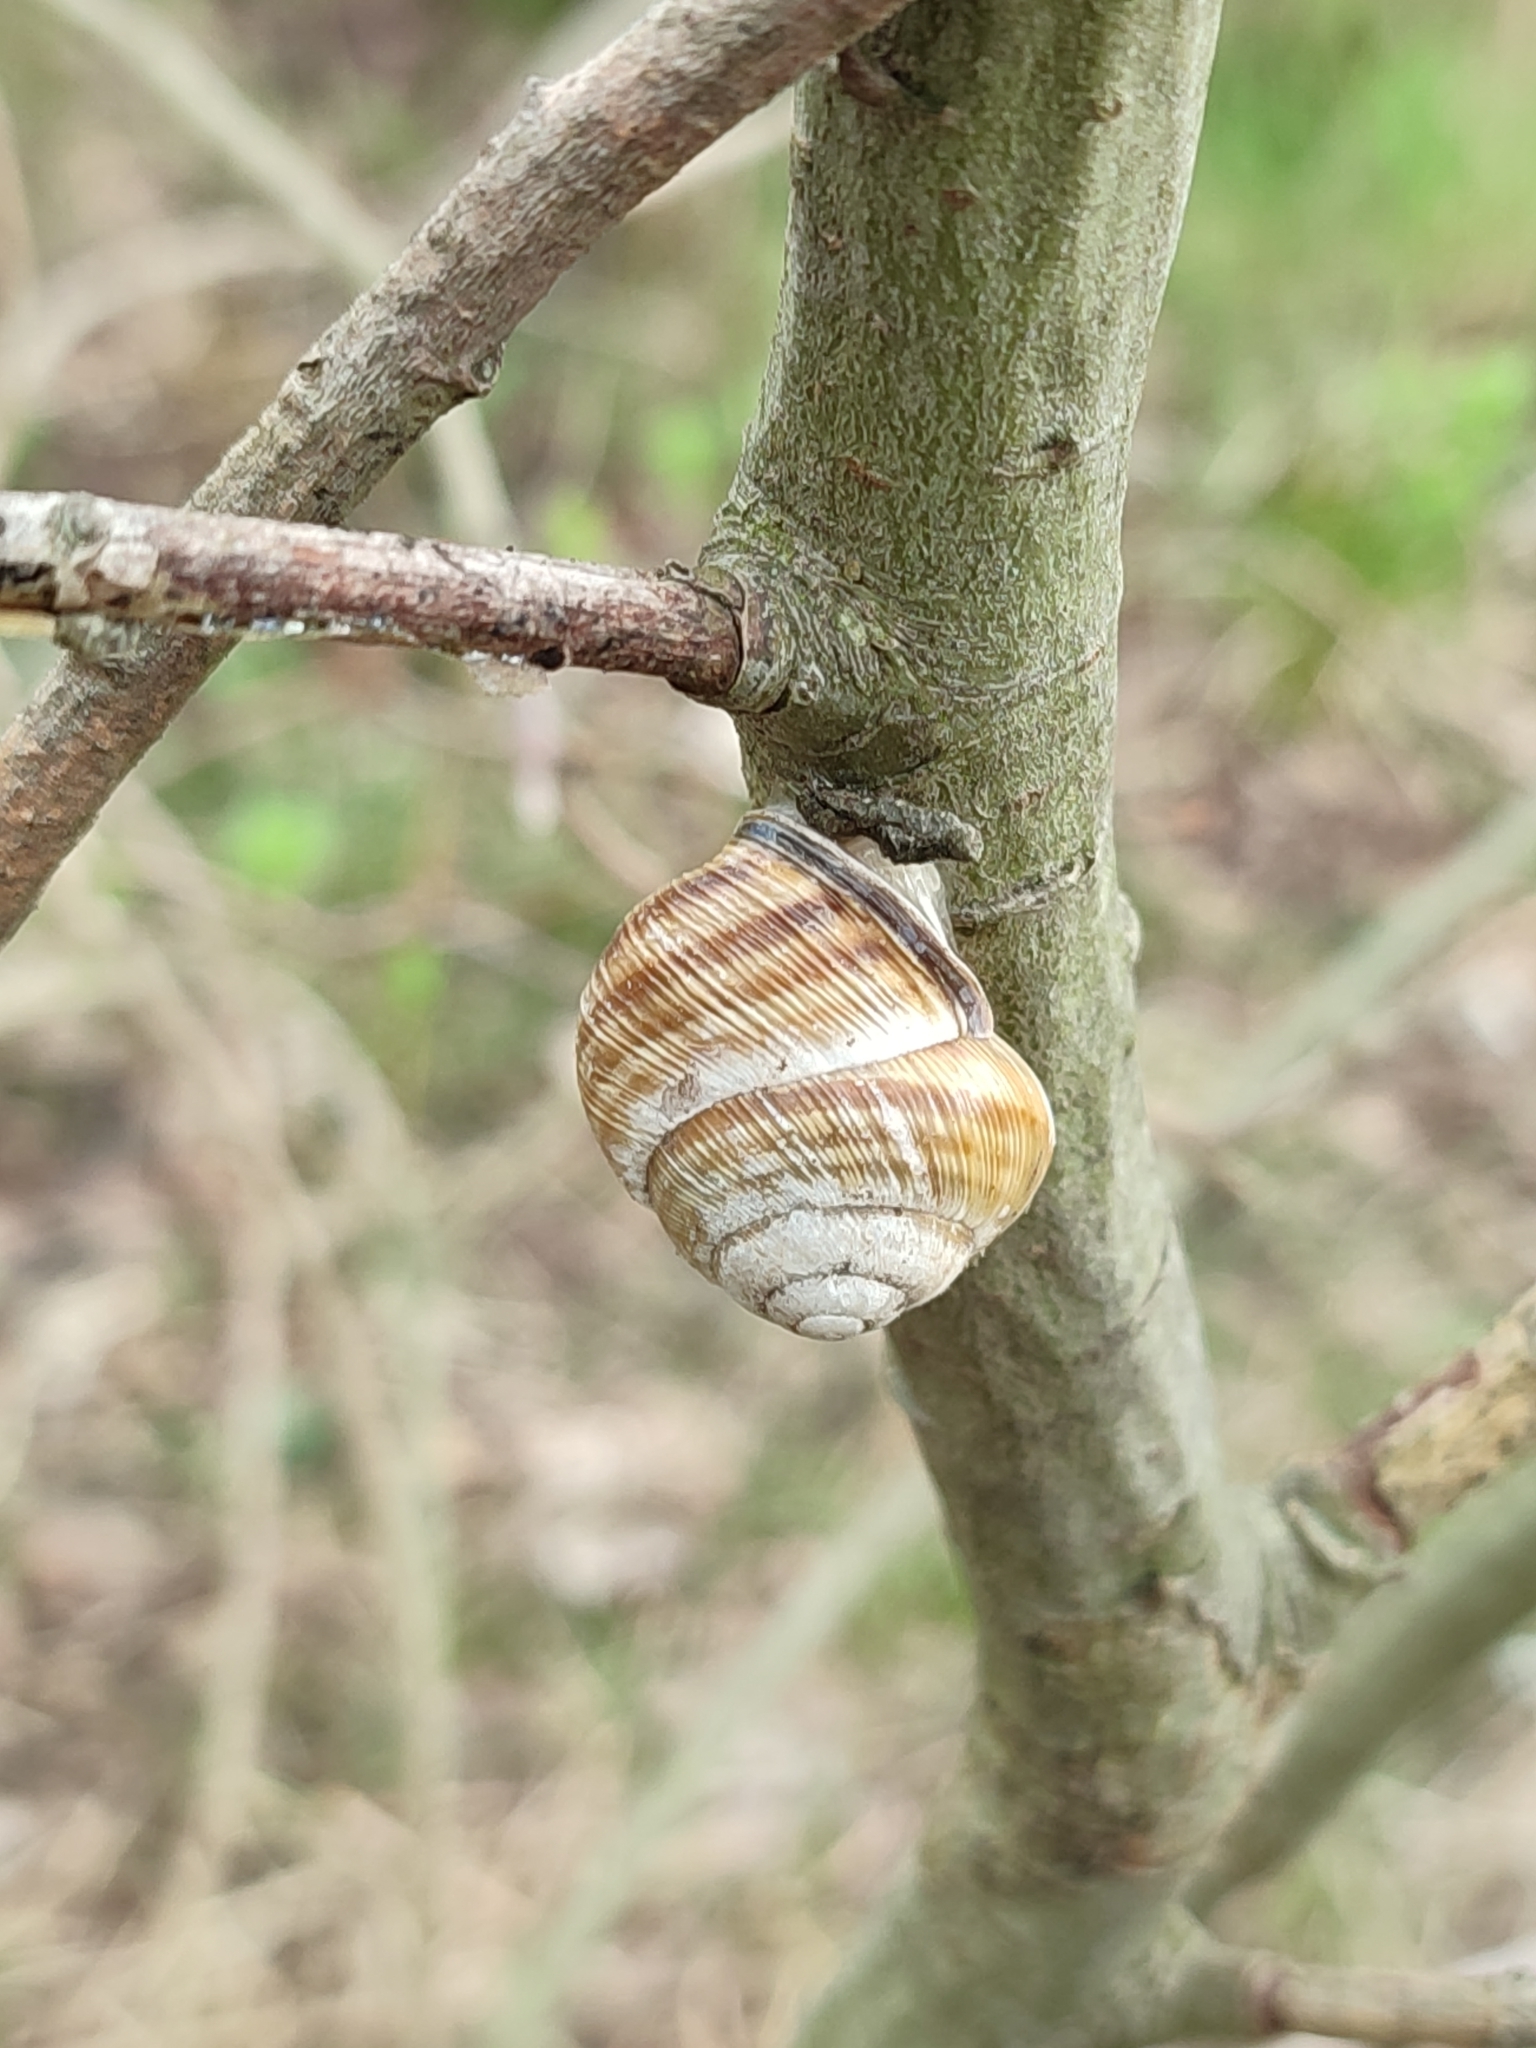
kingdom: Animalia
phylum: Mollusca
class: Gastropoda
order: Stylommatophora
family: Helicidae
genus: Caucasotachea
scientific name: Caucasotachea vindobonensis
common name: European helicid land snail
